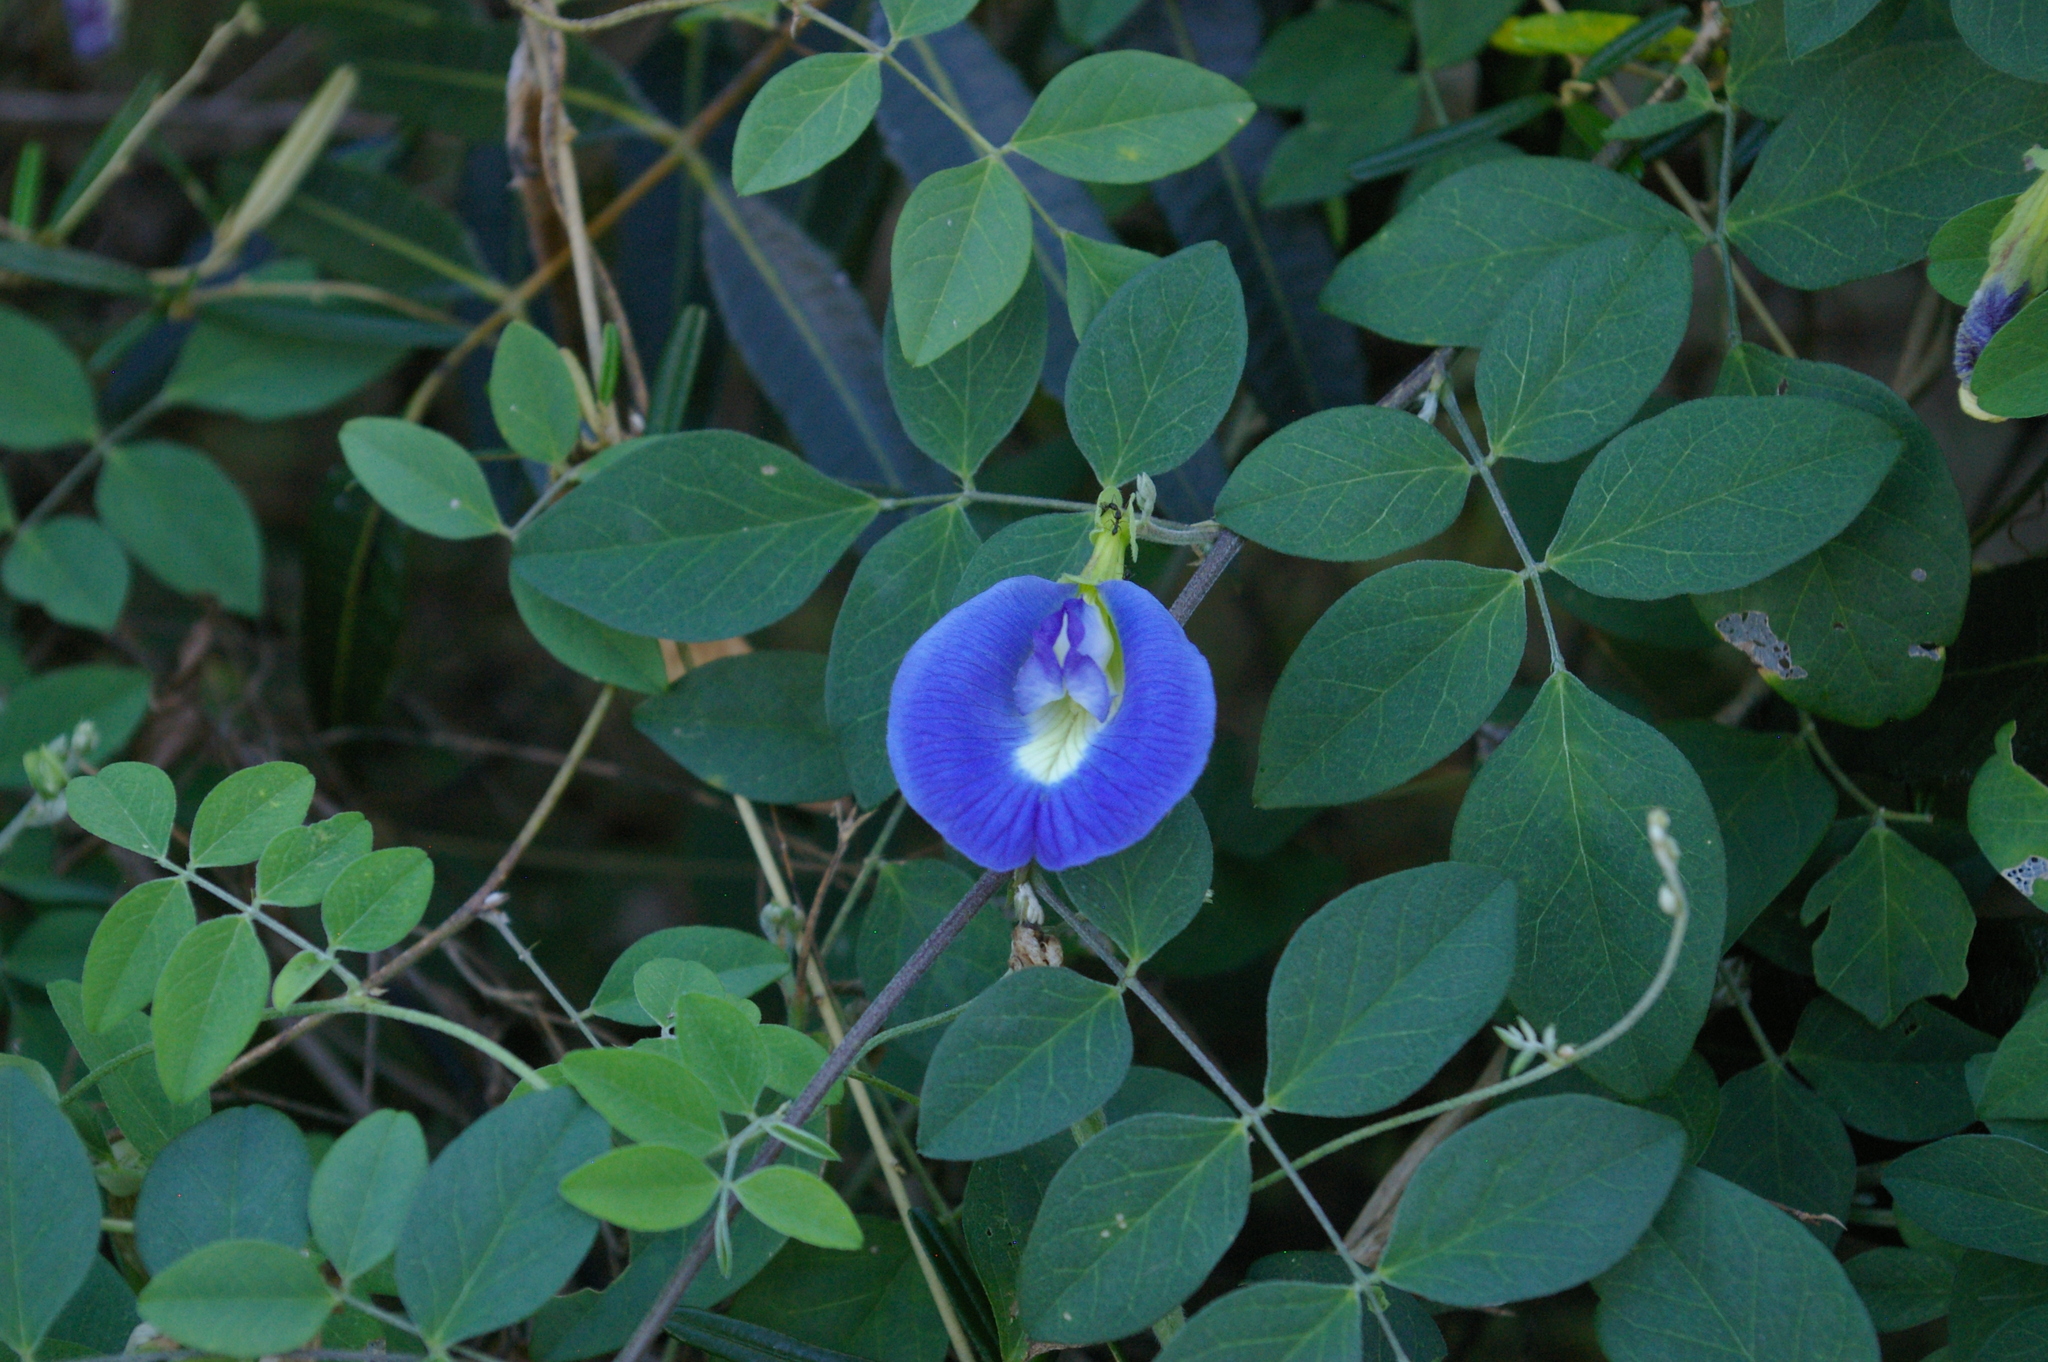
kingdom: Plantae
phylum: Tracheophyta
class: Magnoliopsida
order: Fabales
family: Fabaceae
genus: Clitoria
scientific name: Clitoria ternatea
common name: Asian pigeonwings
